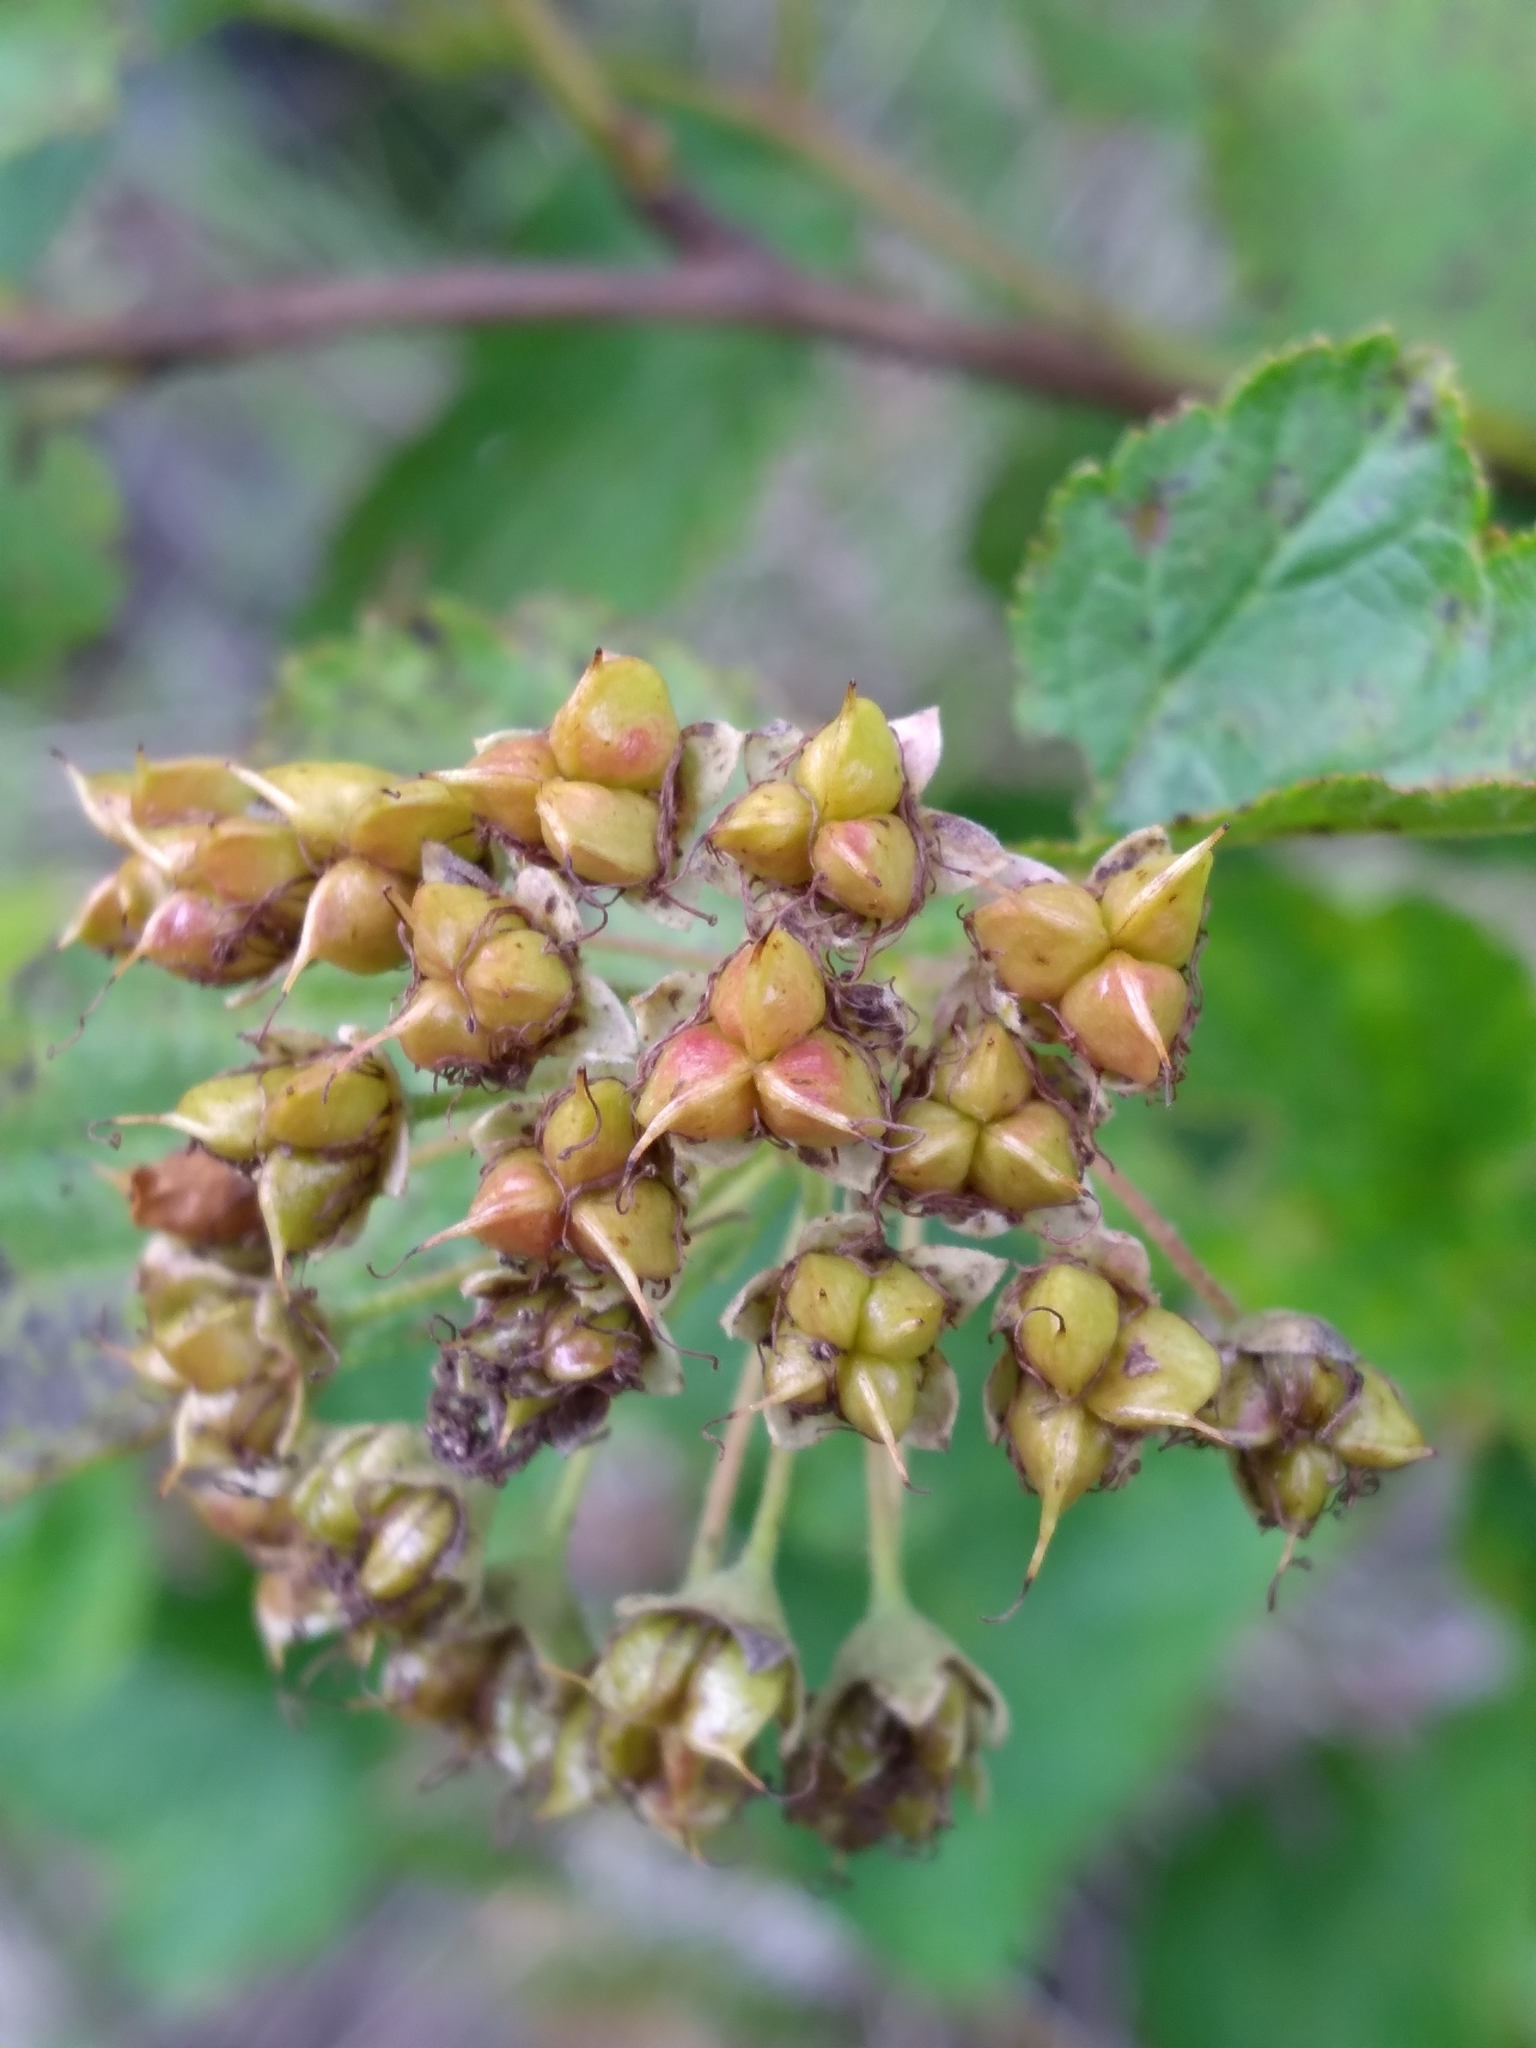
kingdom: Plantae
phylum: Tracheophyta
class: Magnoliopsida
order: Rosales
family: Rosaceae
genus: Physocarpus
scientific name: Physocarpus opulifolius
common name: Ninebark
